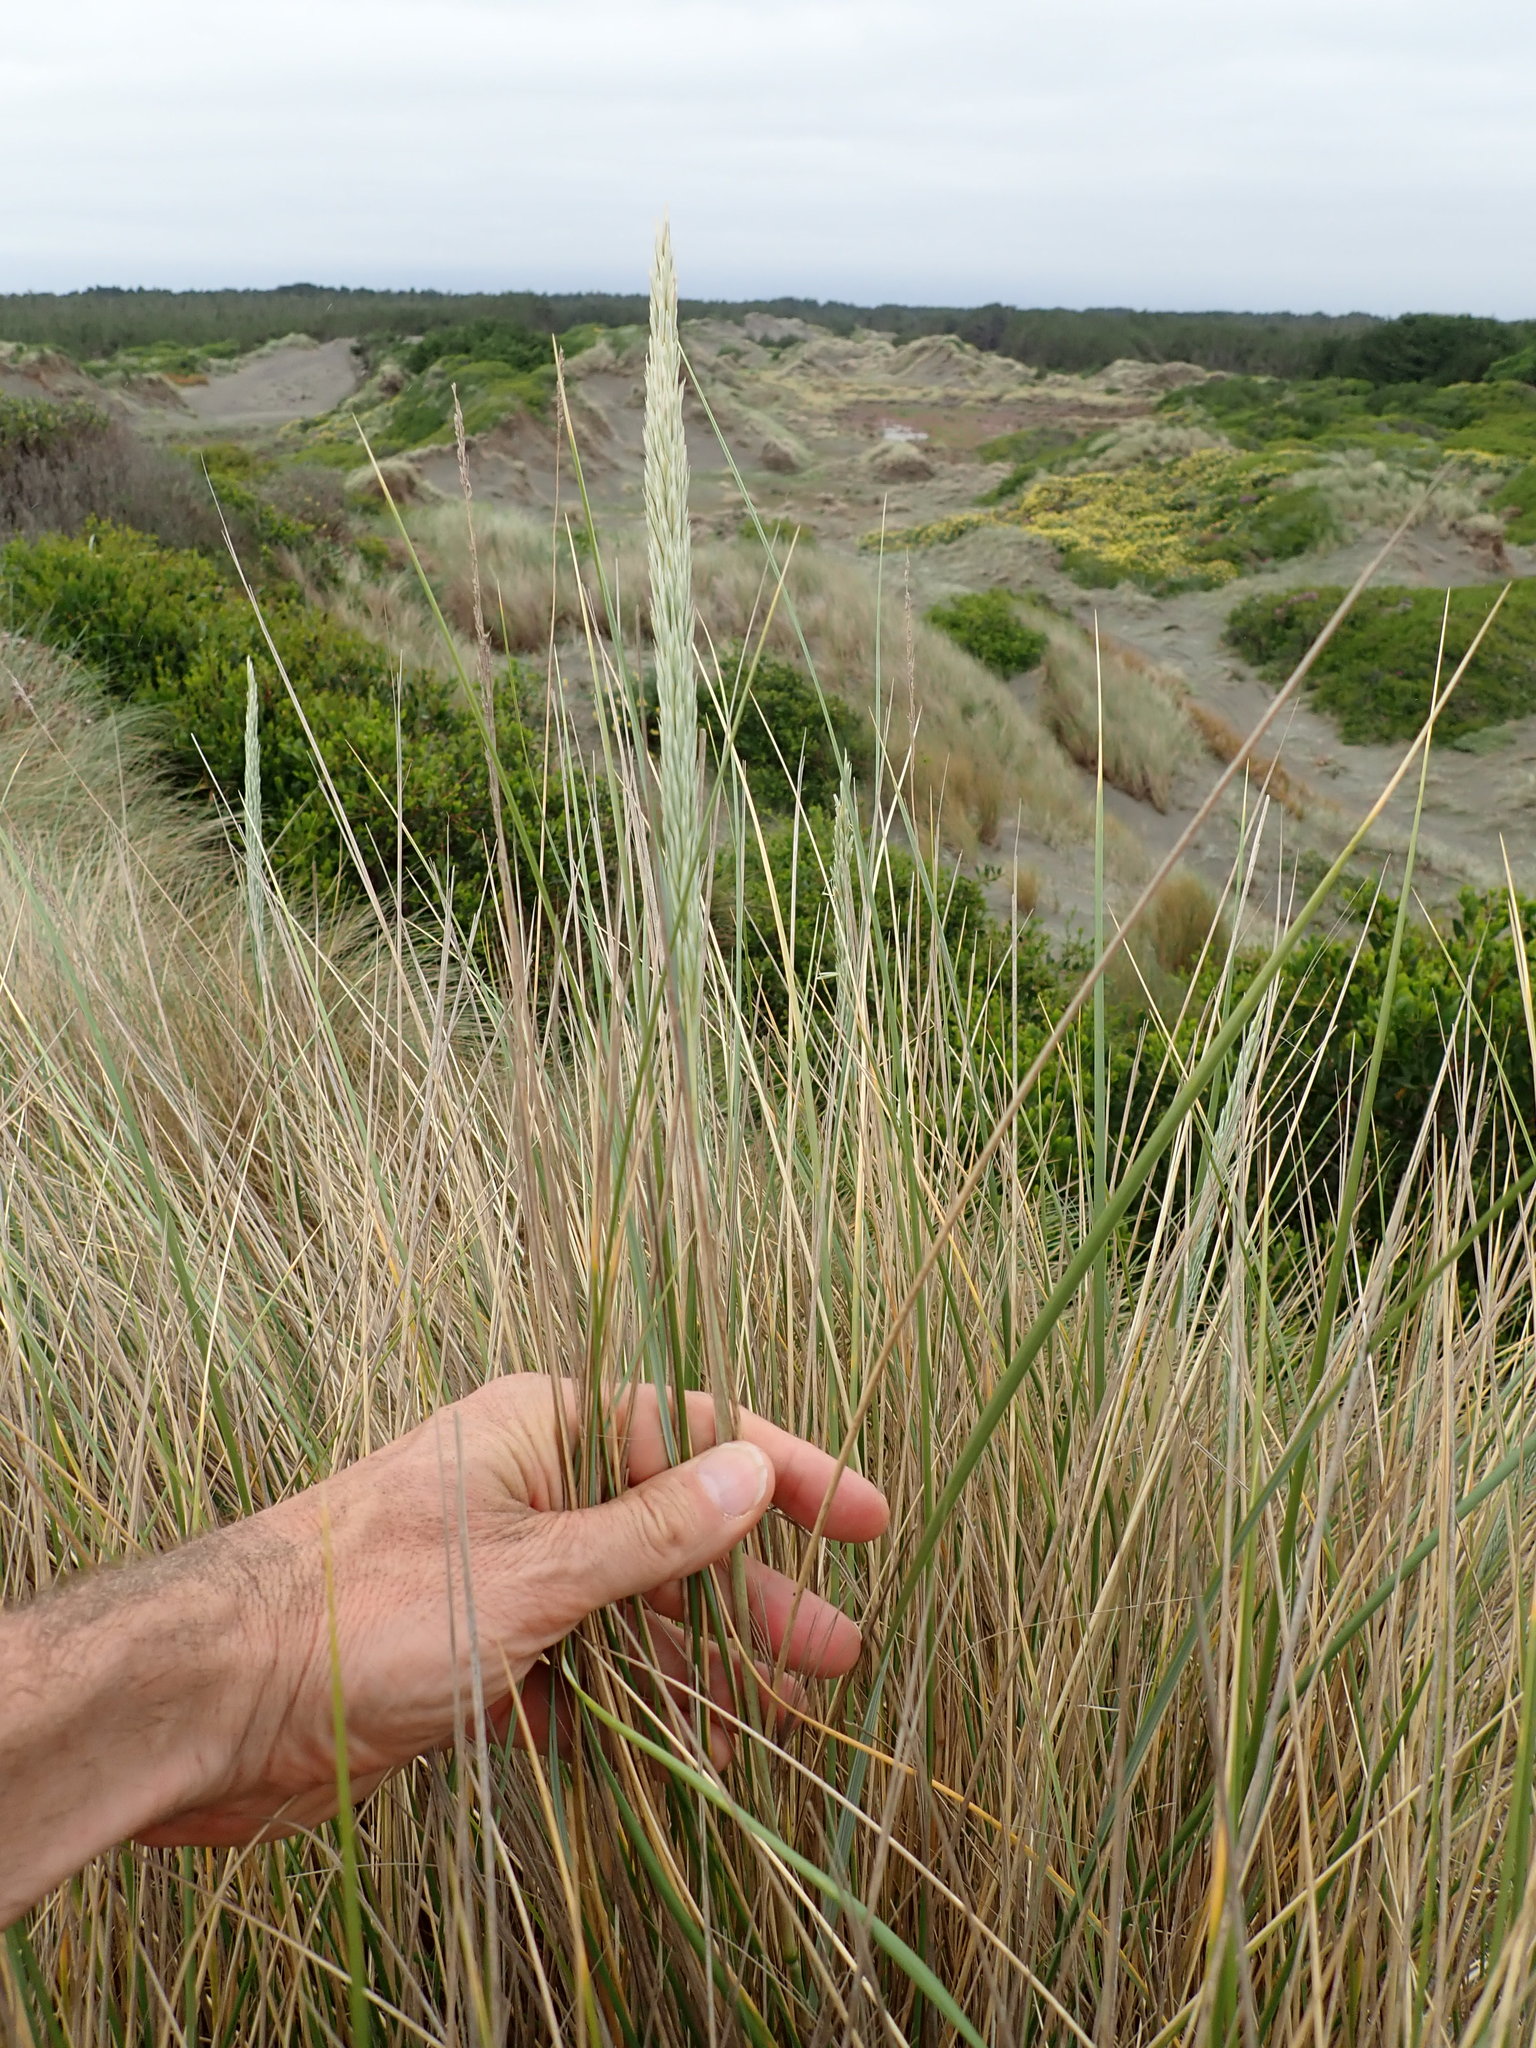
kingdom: Plantae
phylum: Tracheophyta
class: Liliopsida
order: Poales
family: Poaceae
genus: Calamagrostis
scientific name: Calamagrostis arenaria
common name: European beachgrass
